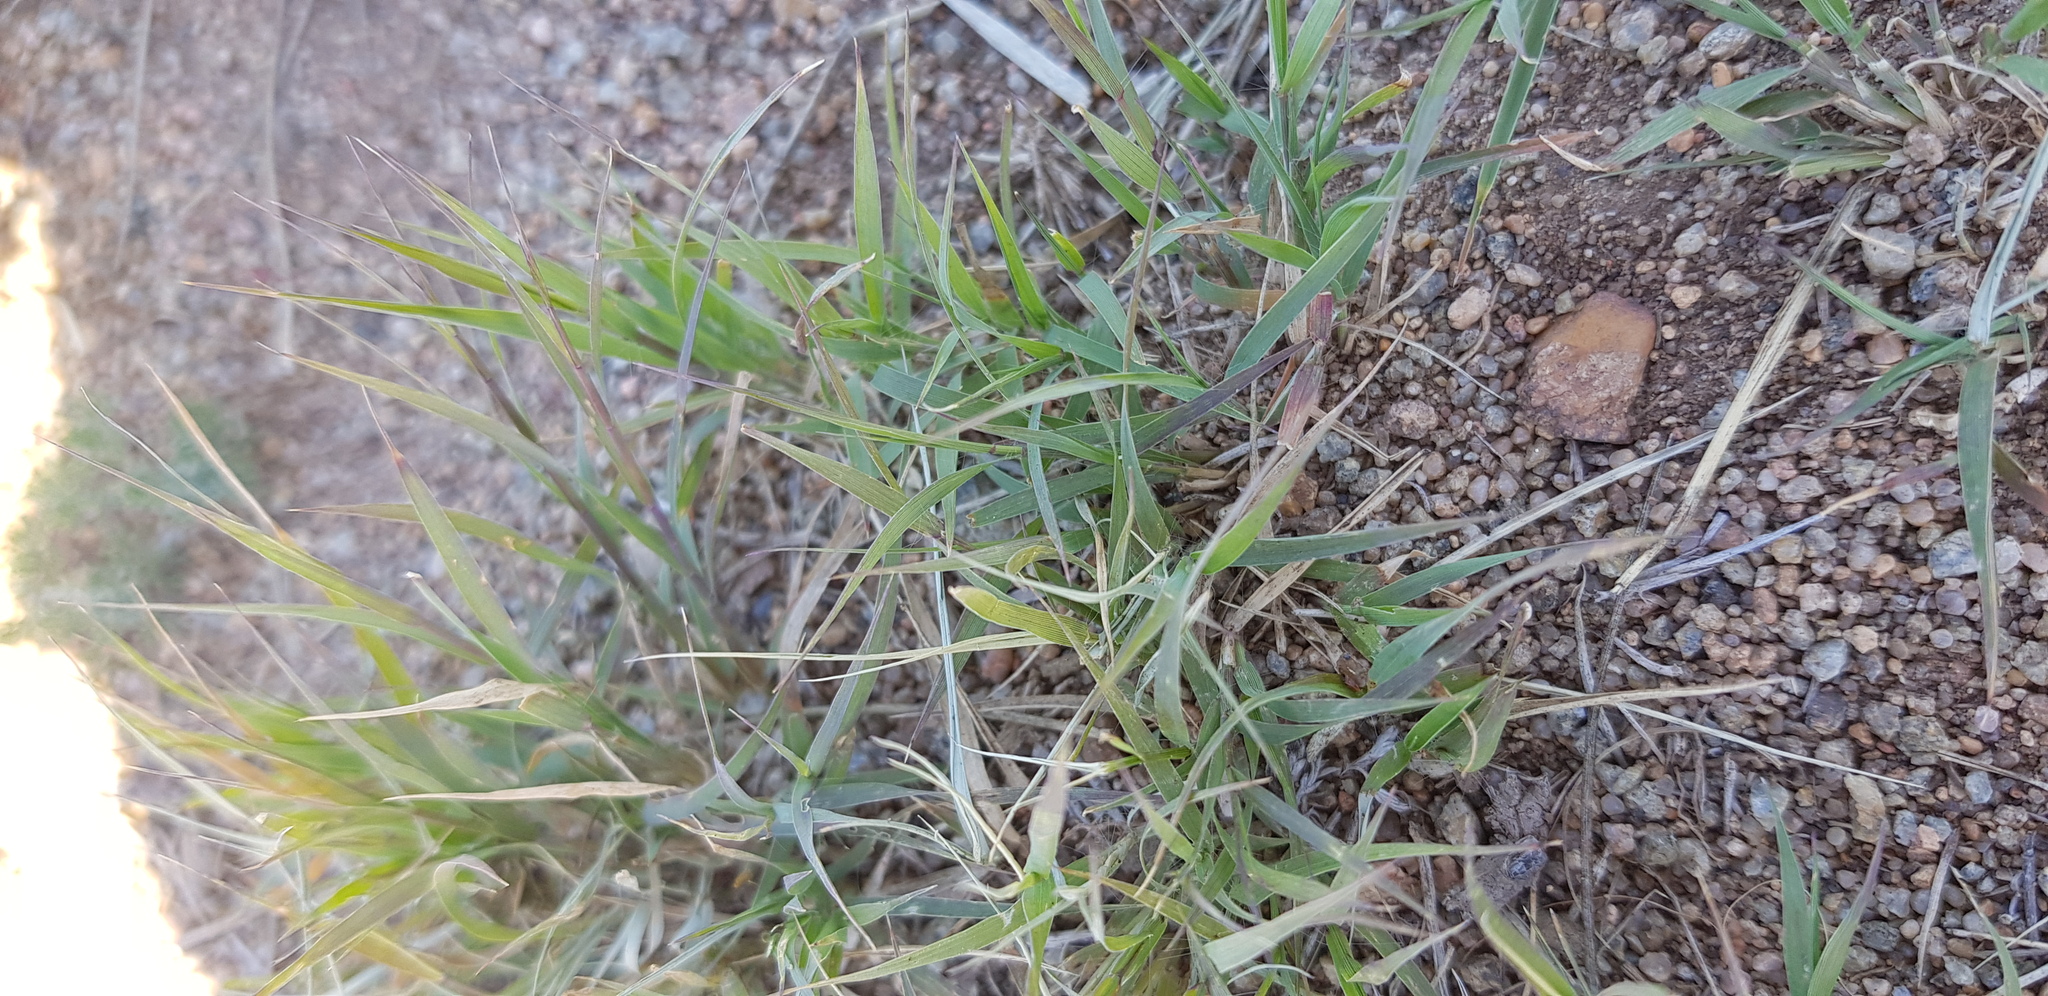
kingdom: Plantae
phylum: Tracheophyta
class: Liliopsida
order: Poales
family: Poaceae
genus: Cleistogenes
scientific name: Cleistogenes squarrosa
